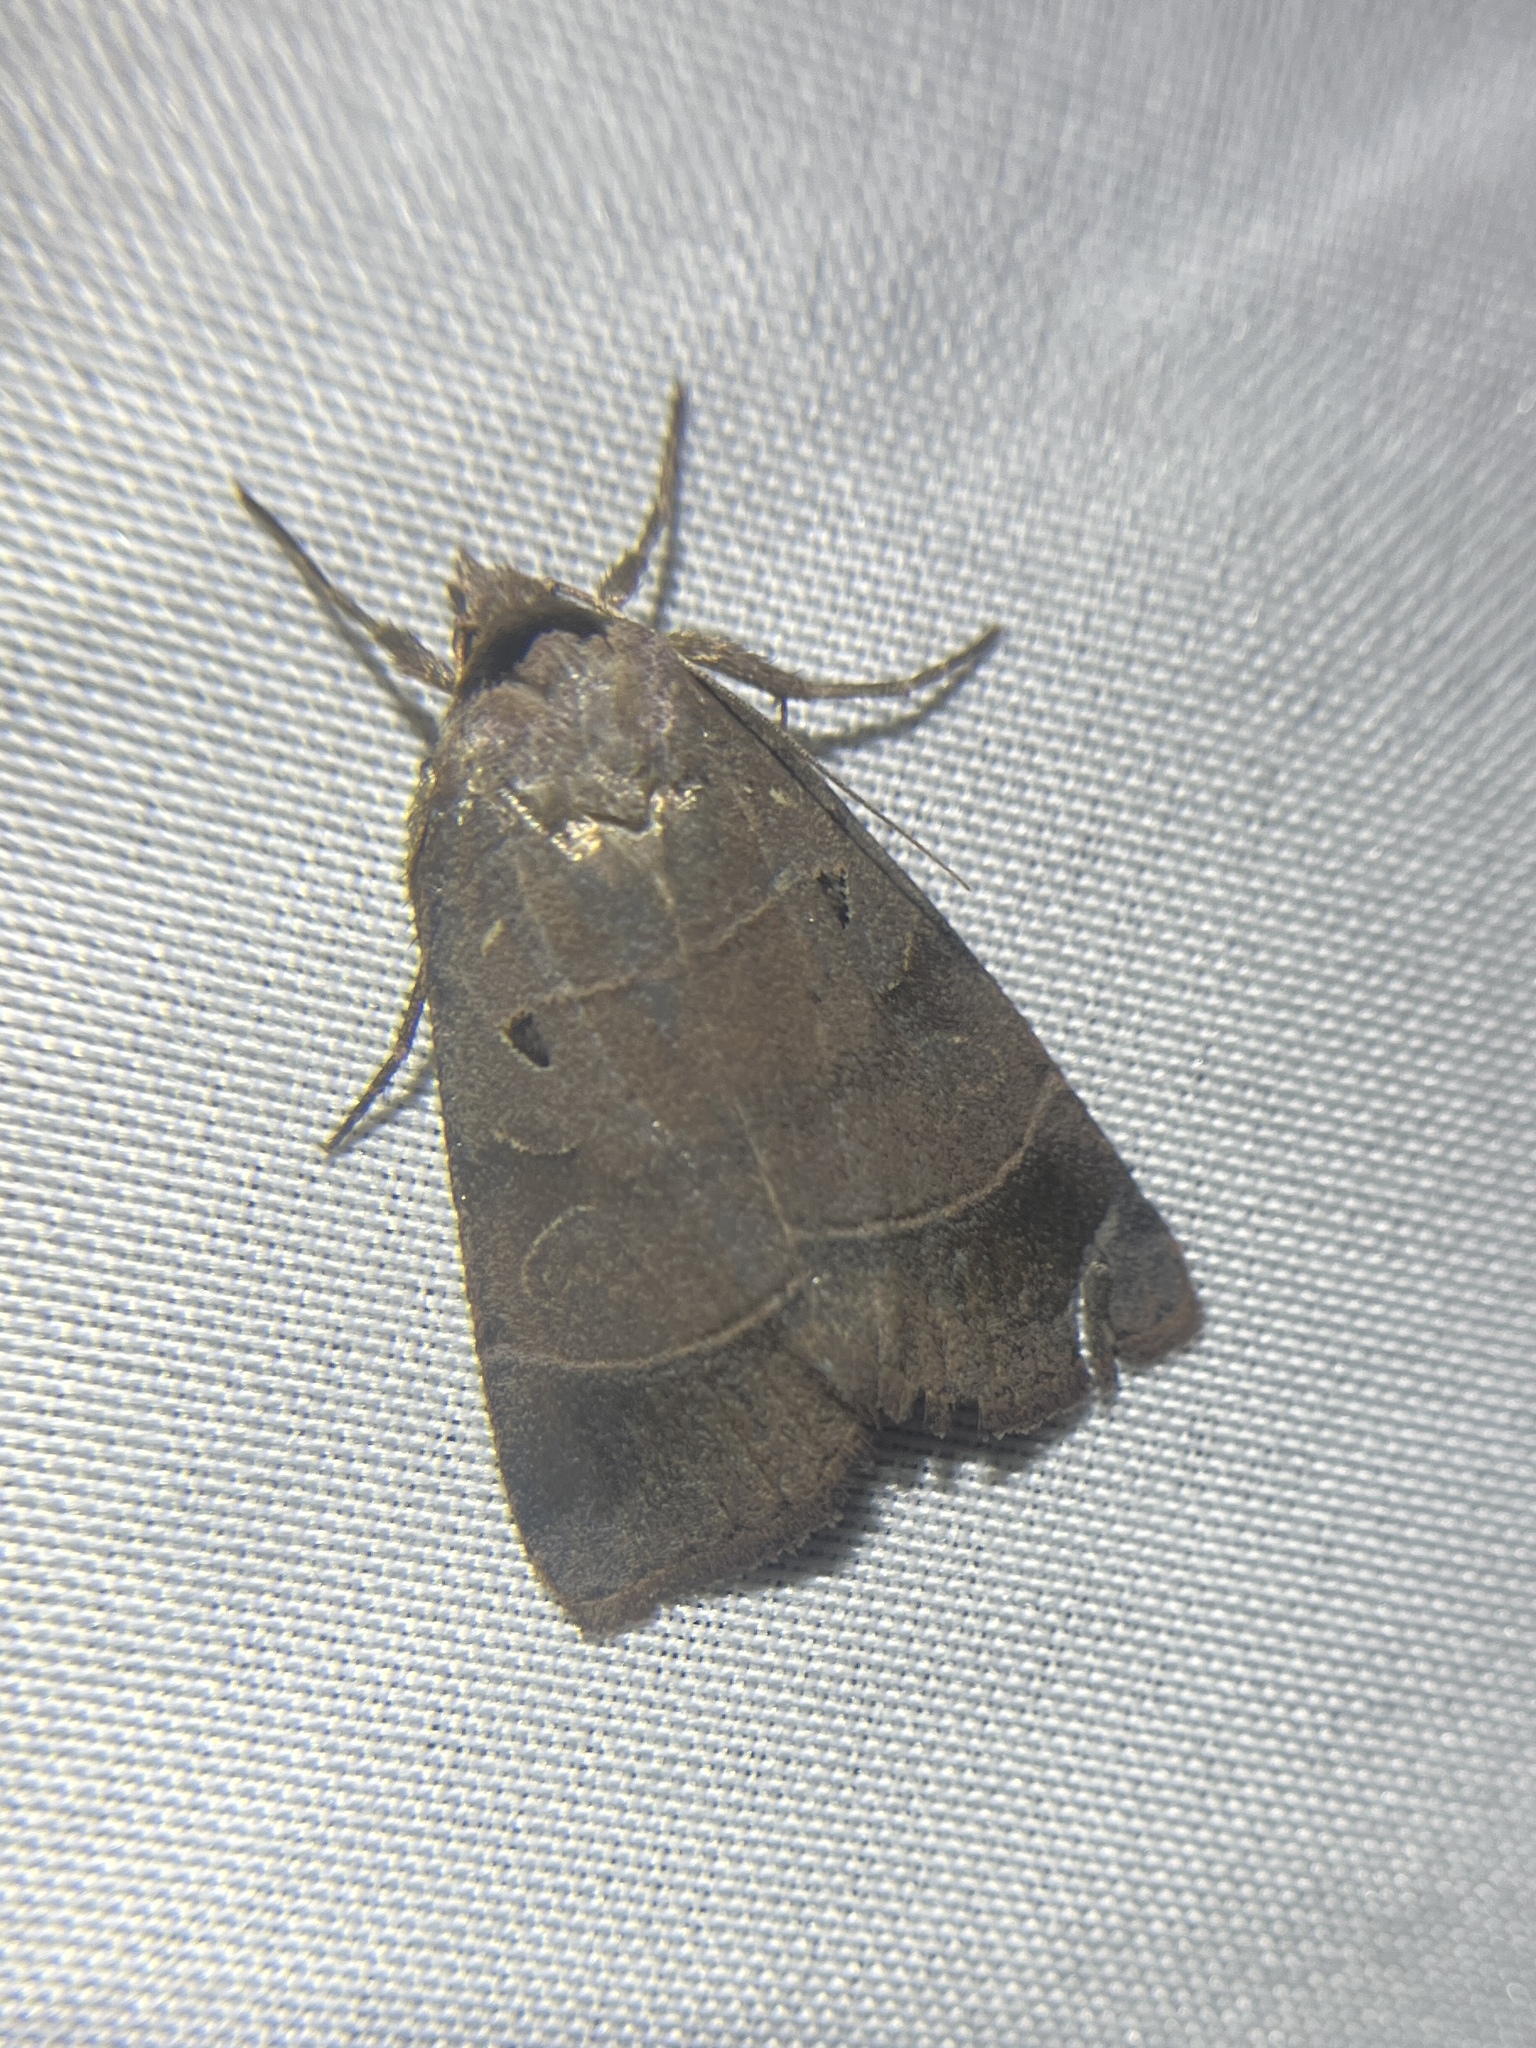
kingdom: Animalia
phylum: Arthropoda
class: Insecta
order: Lepidoptera
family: Noctuidae
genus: Agnorisma
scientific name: Agnorisma badinodis
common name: Pale-banded dart
